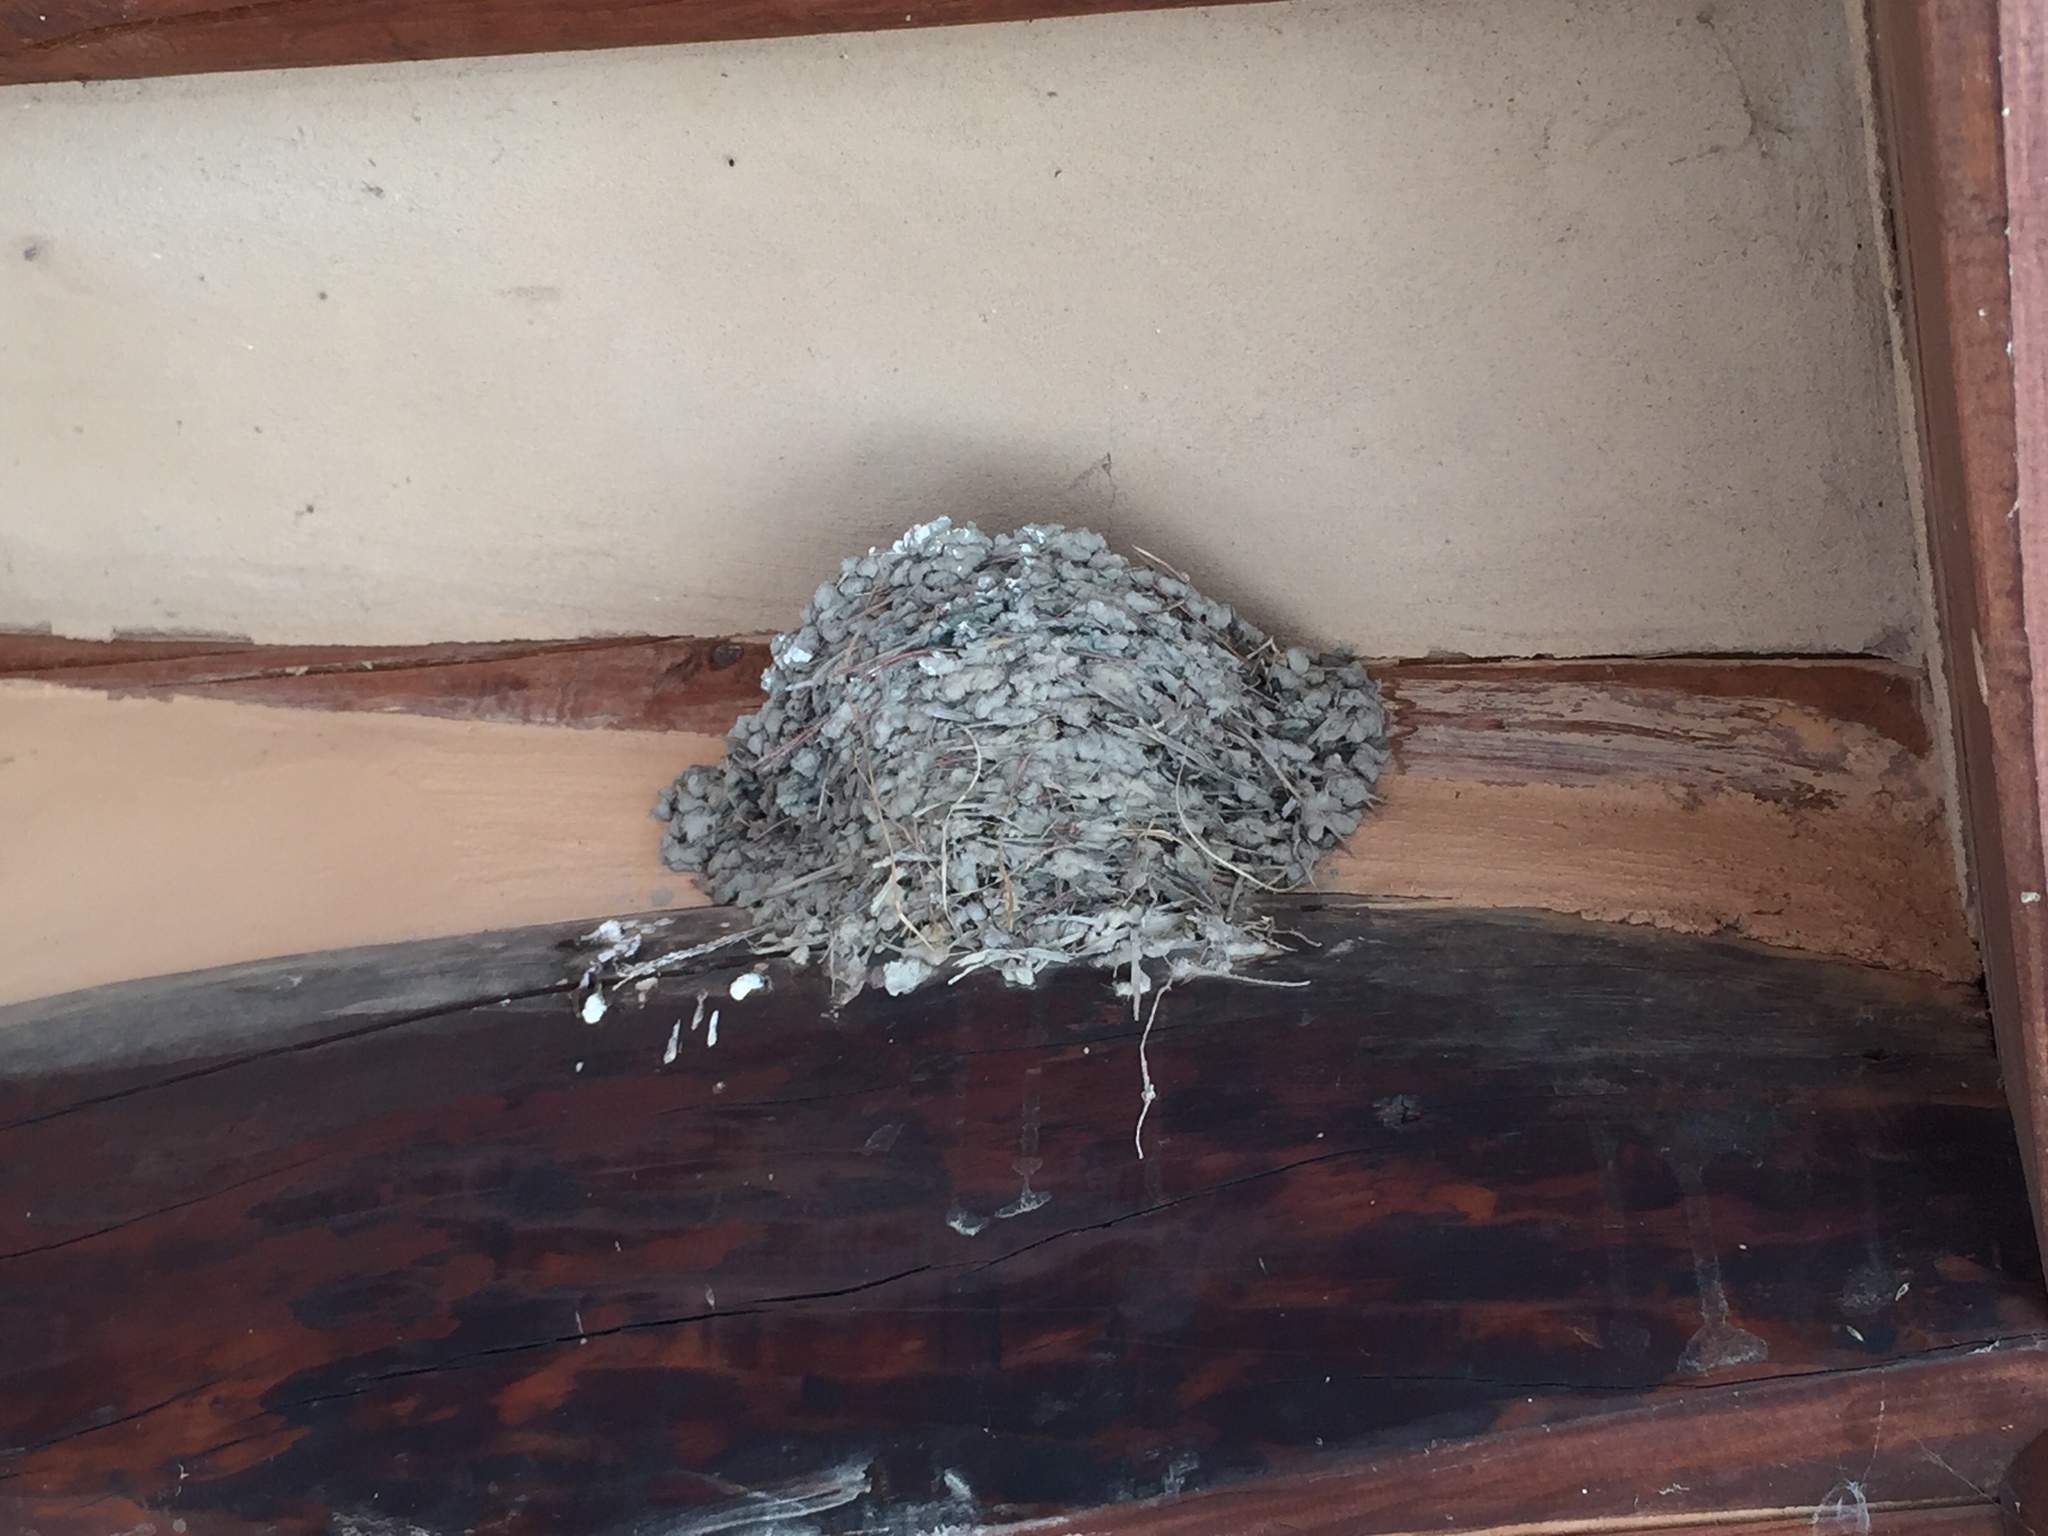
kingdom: Animalia
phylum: Chordata
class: Aves
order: Passeriformes
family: Hirundinidae
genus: Hirundo
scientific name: Hirundo rustica
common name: Barn swallow
